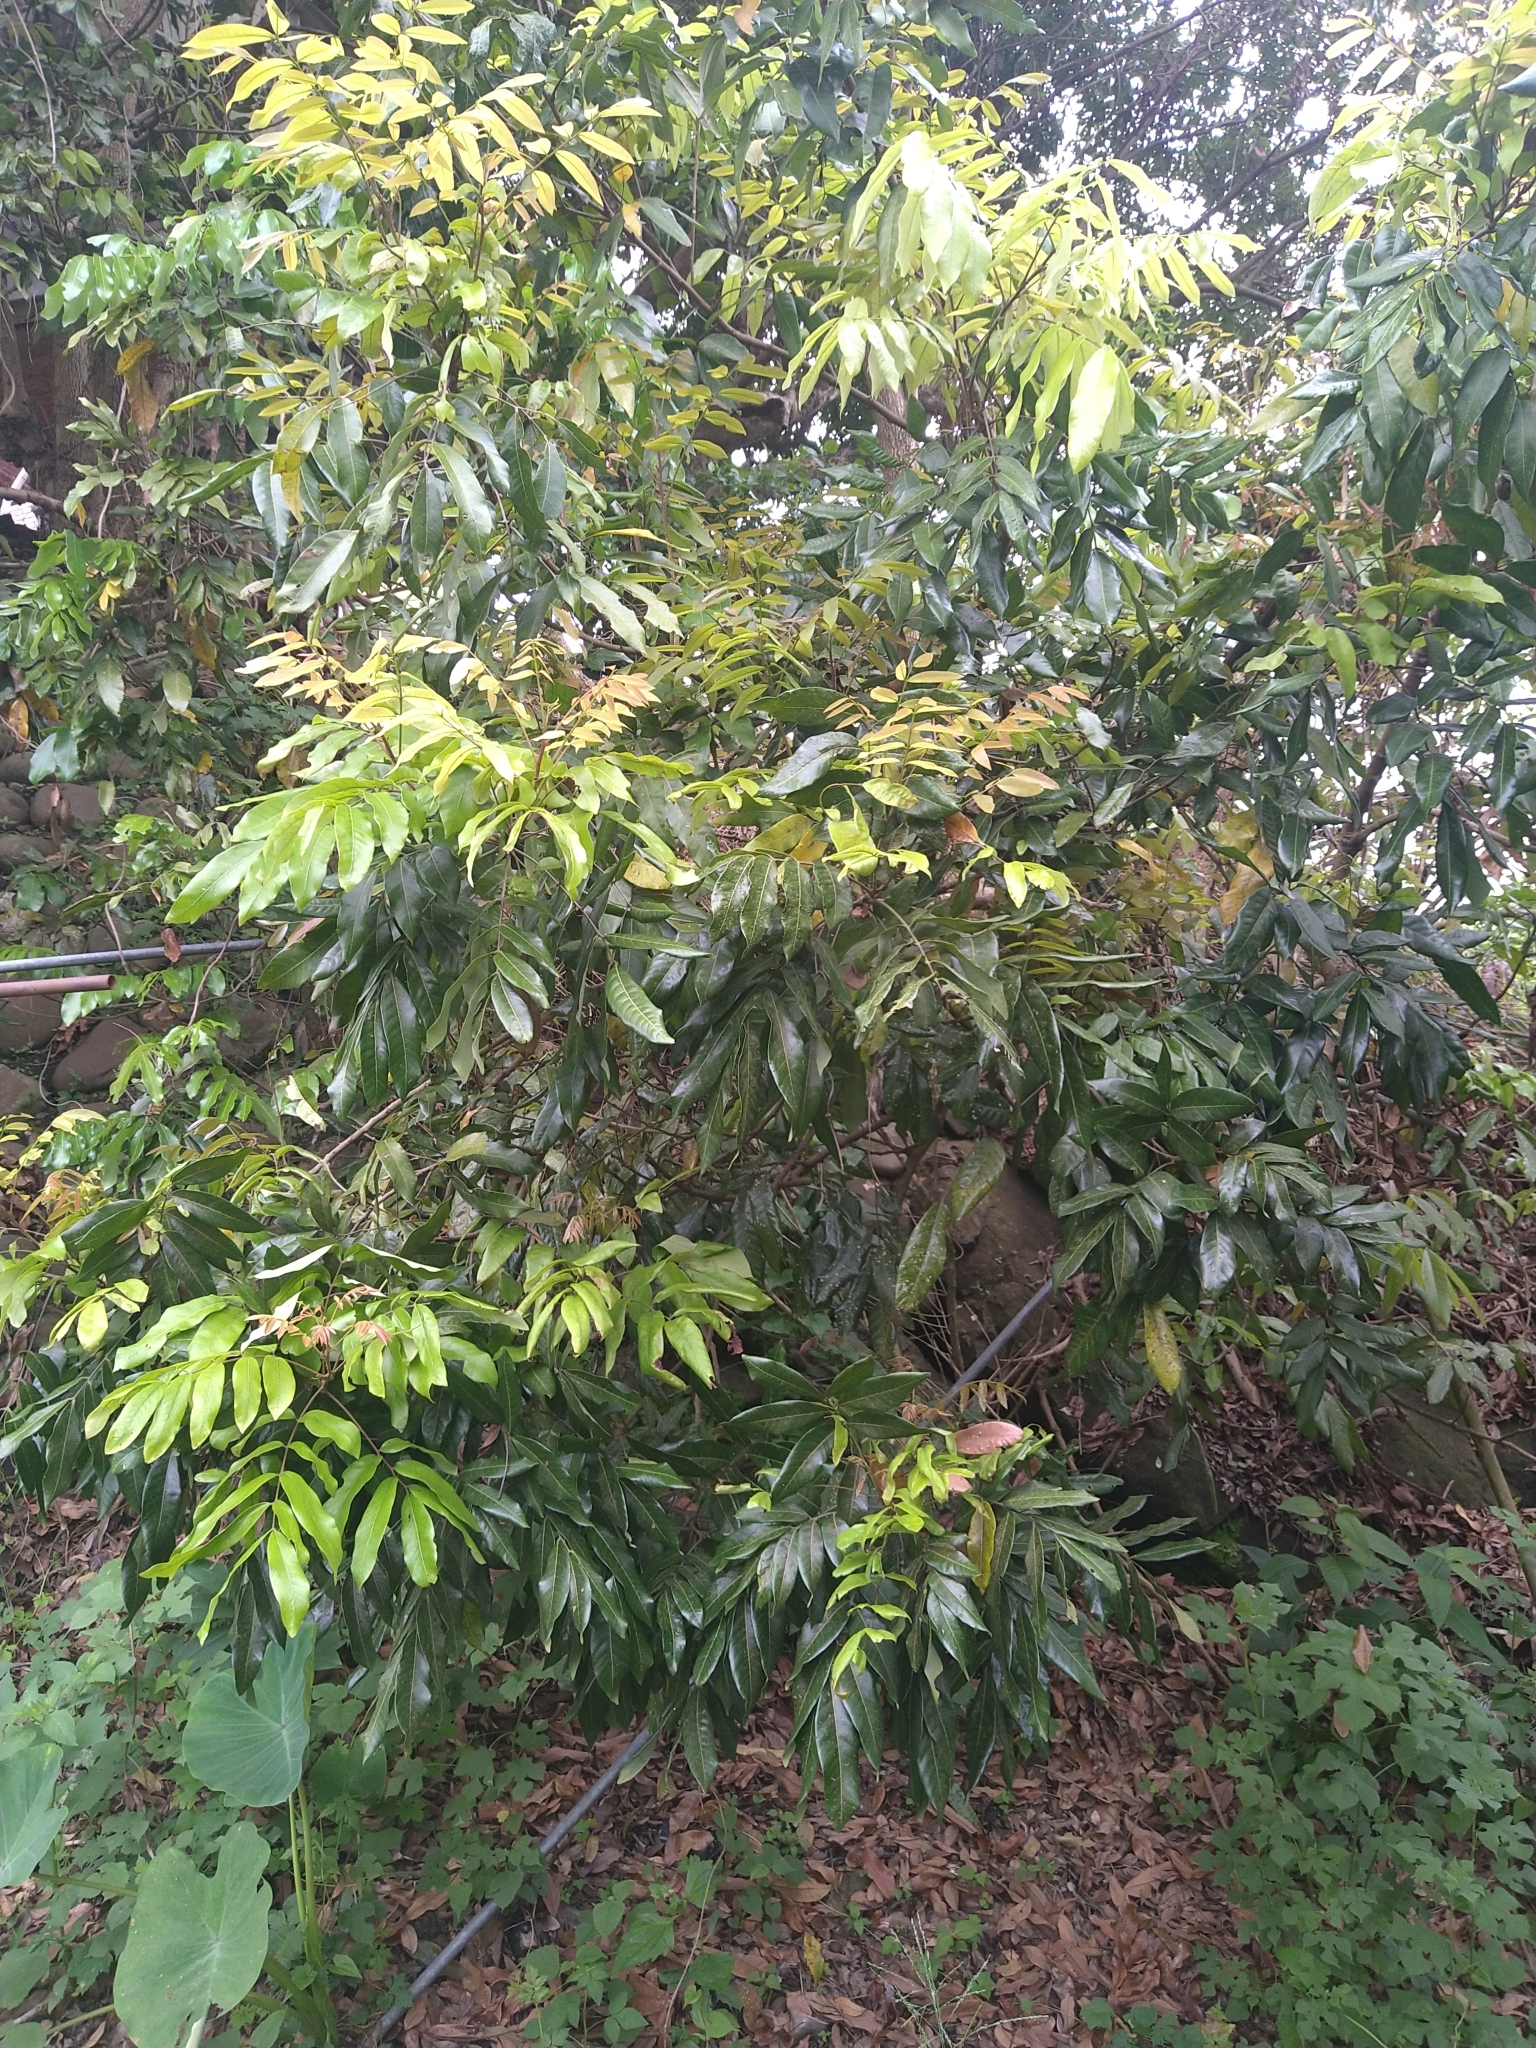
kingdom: Plantae
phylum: Tracheophyta
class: Magnoliopsida
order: Sapindales
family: Sapindaceae
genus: Dimocarpus
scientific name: Dimocarpus longan
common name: Longan
